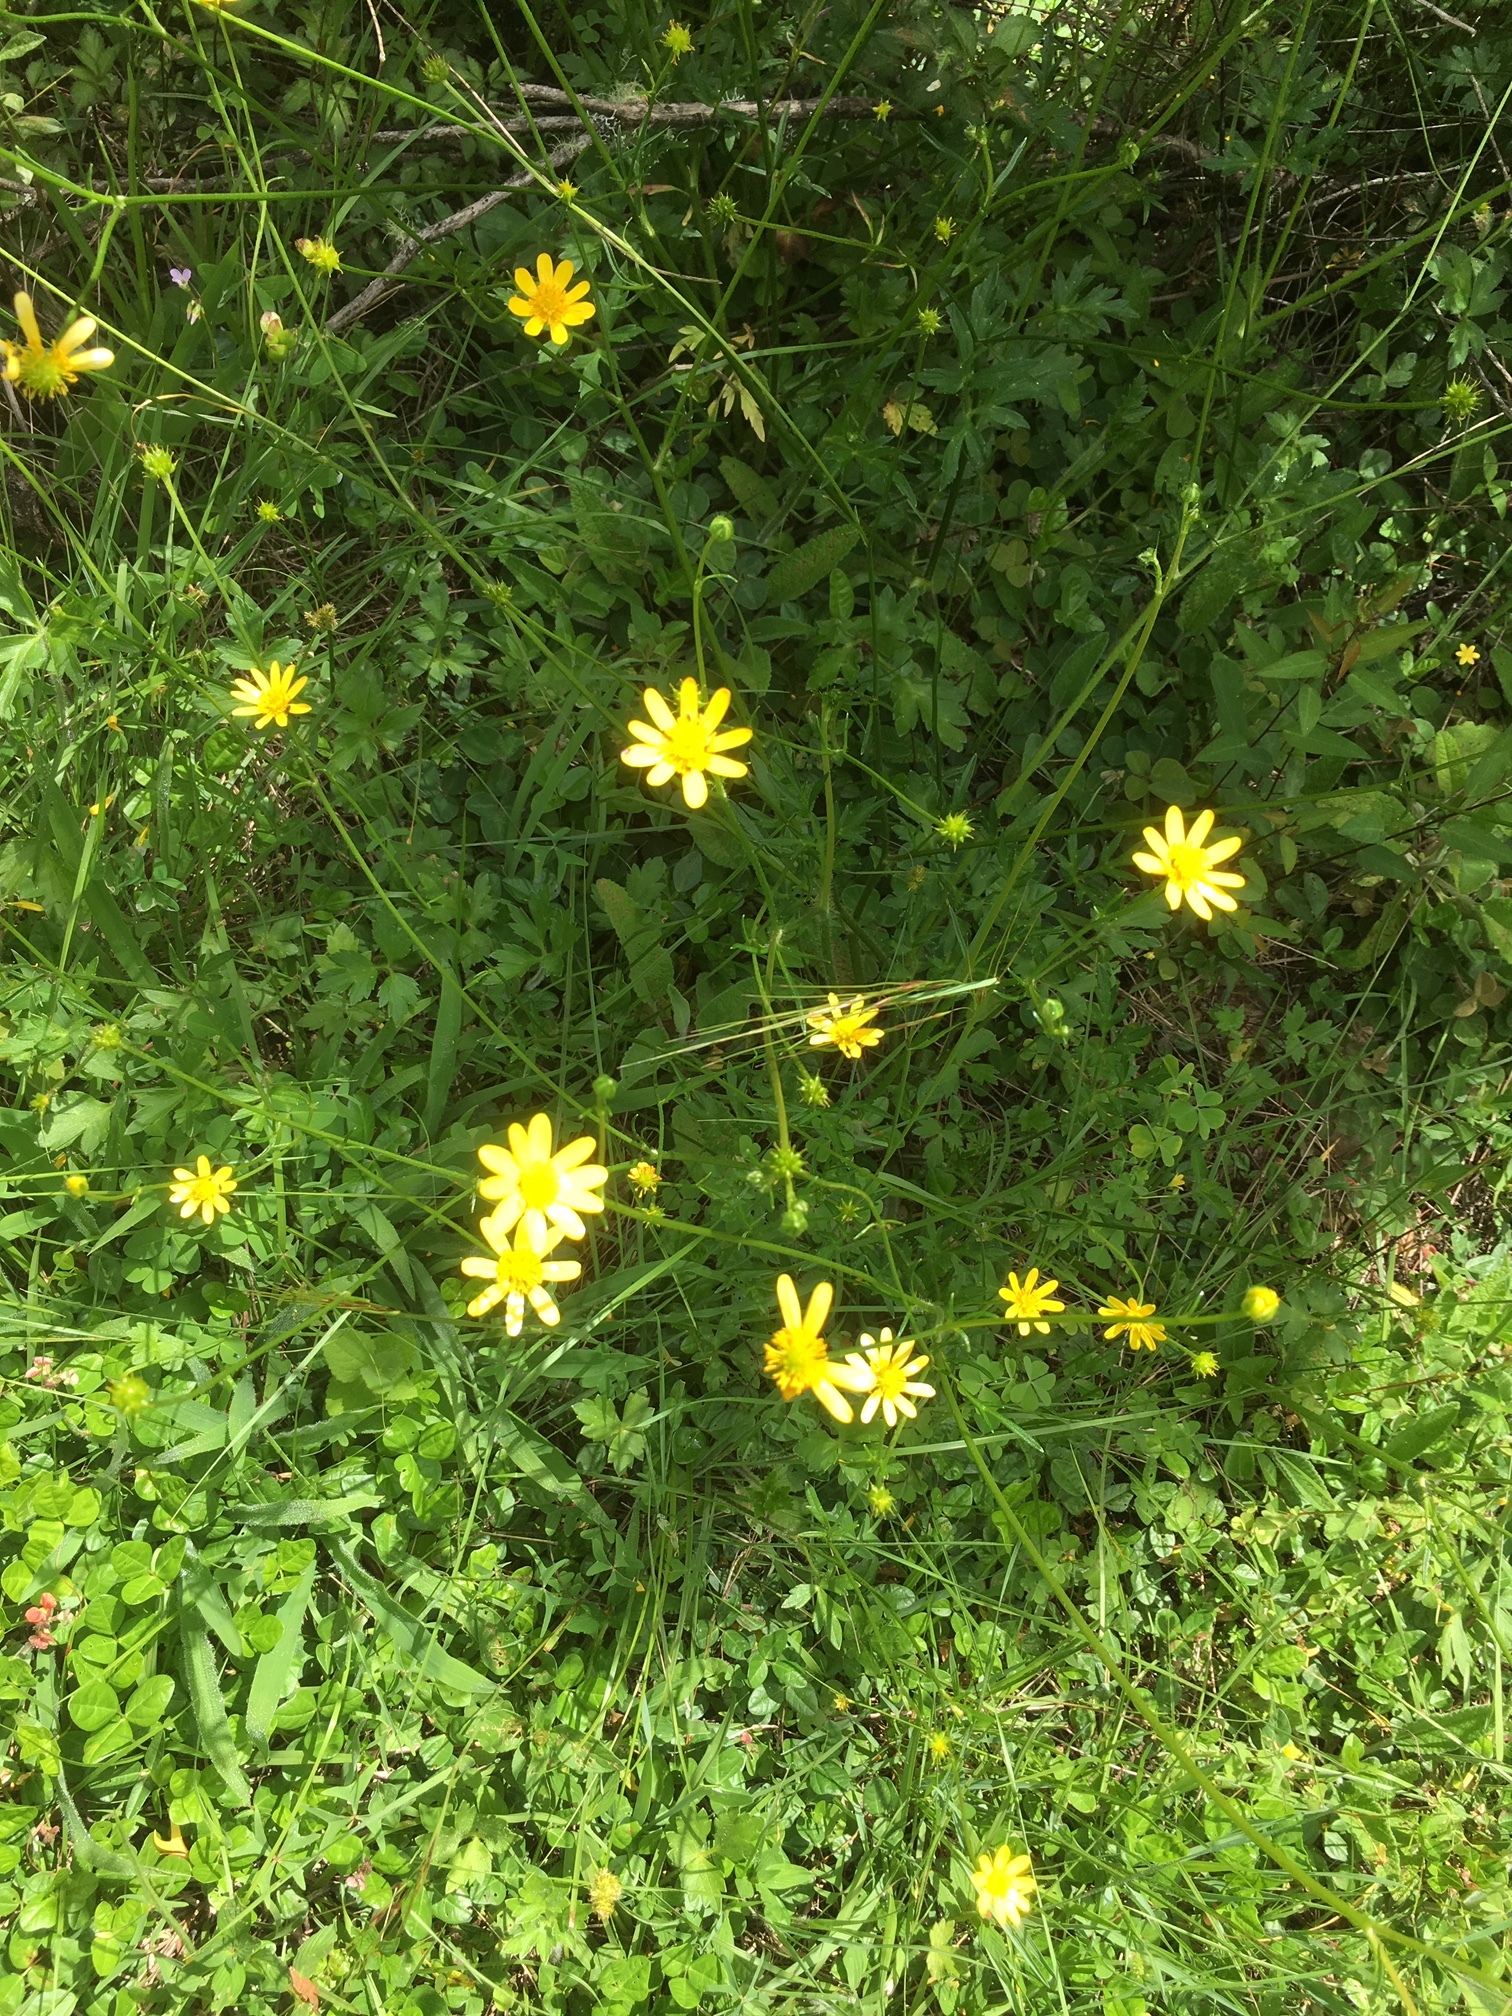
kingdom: Plantae
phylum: Tracheophyta
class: Magnoliopsida
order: Ranunculales
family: Ranunculaceae
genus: Ranunculus
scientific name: Ranunculus petiolaris
